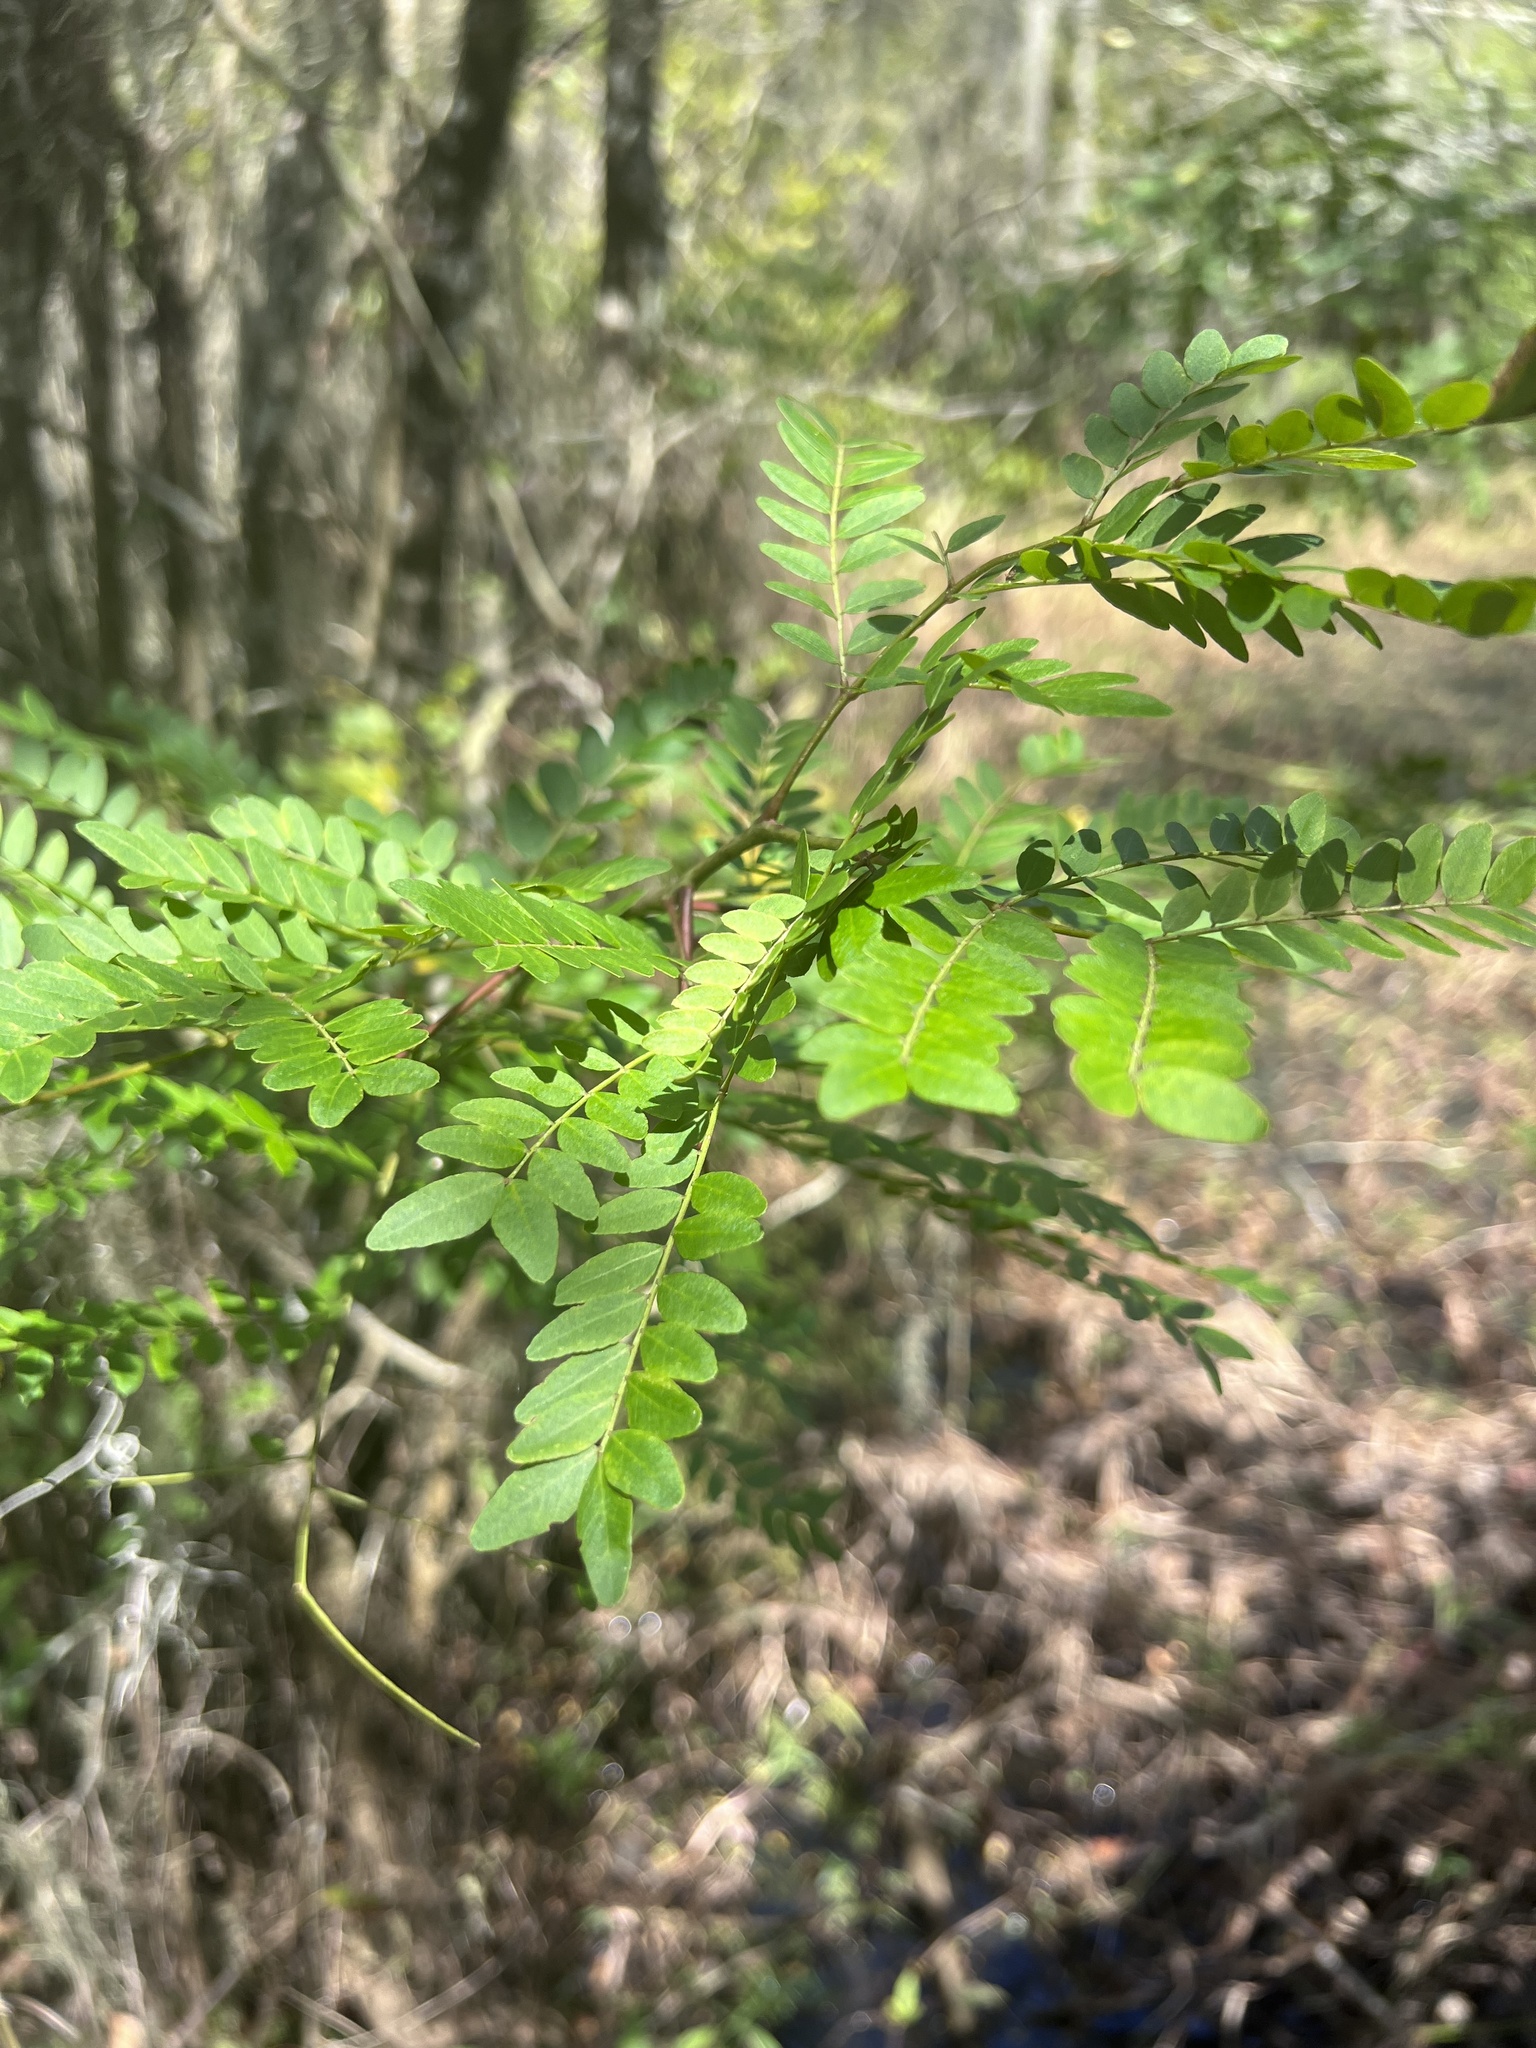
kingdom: Plantae
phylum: Tracheophyta
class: Magnoliopsida
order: Fabales
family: Fabaceae
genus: Gleditsia
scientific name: Gleditsia aquatica
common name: Swamp-locust
